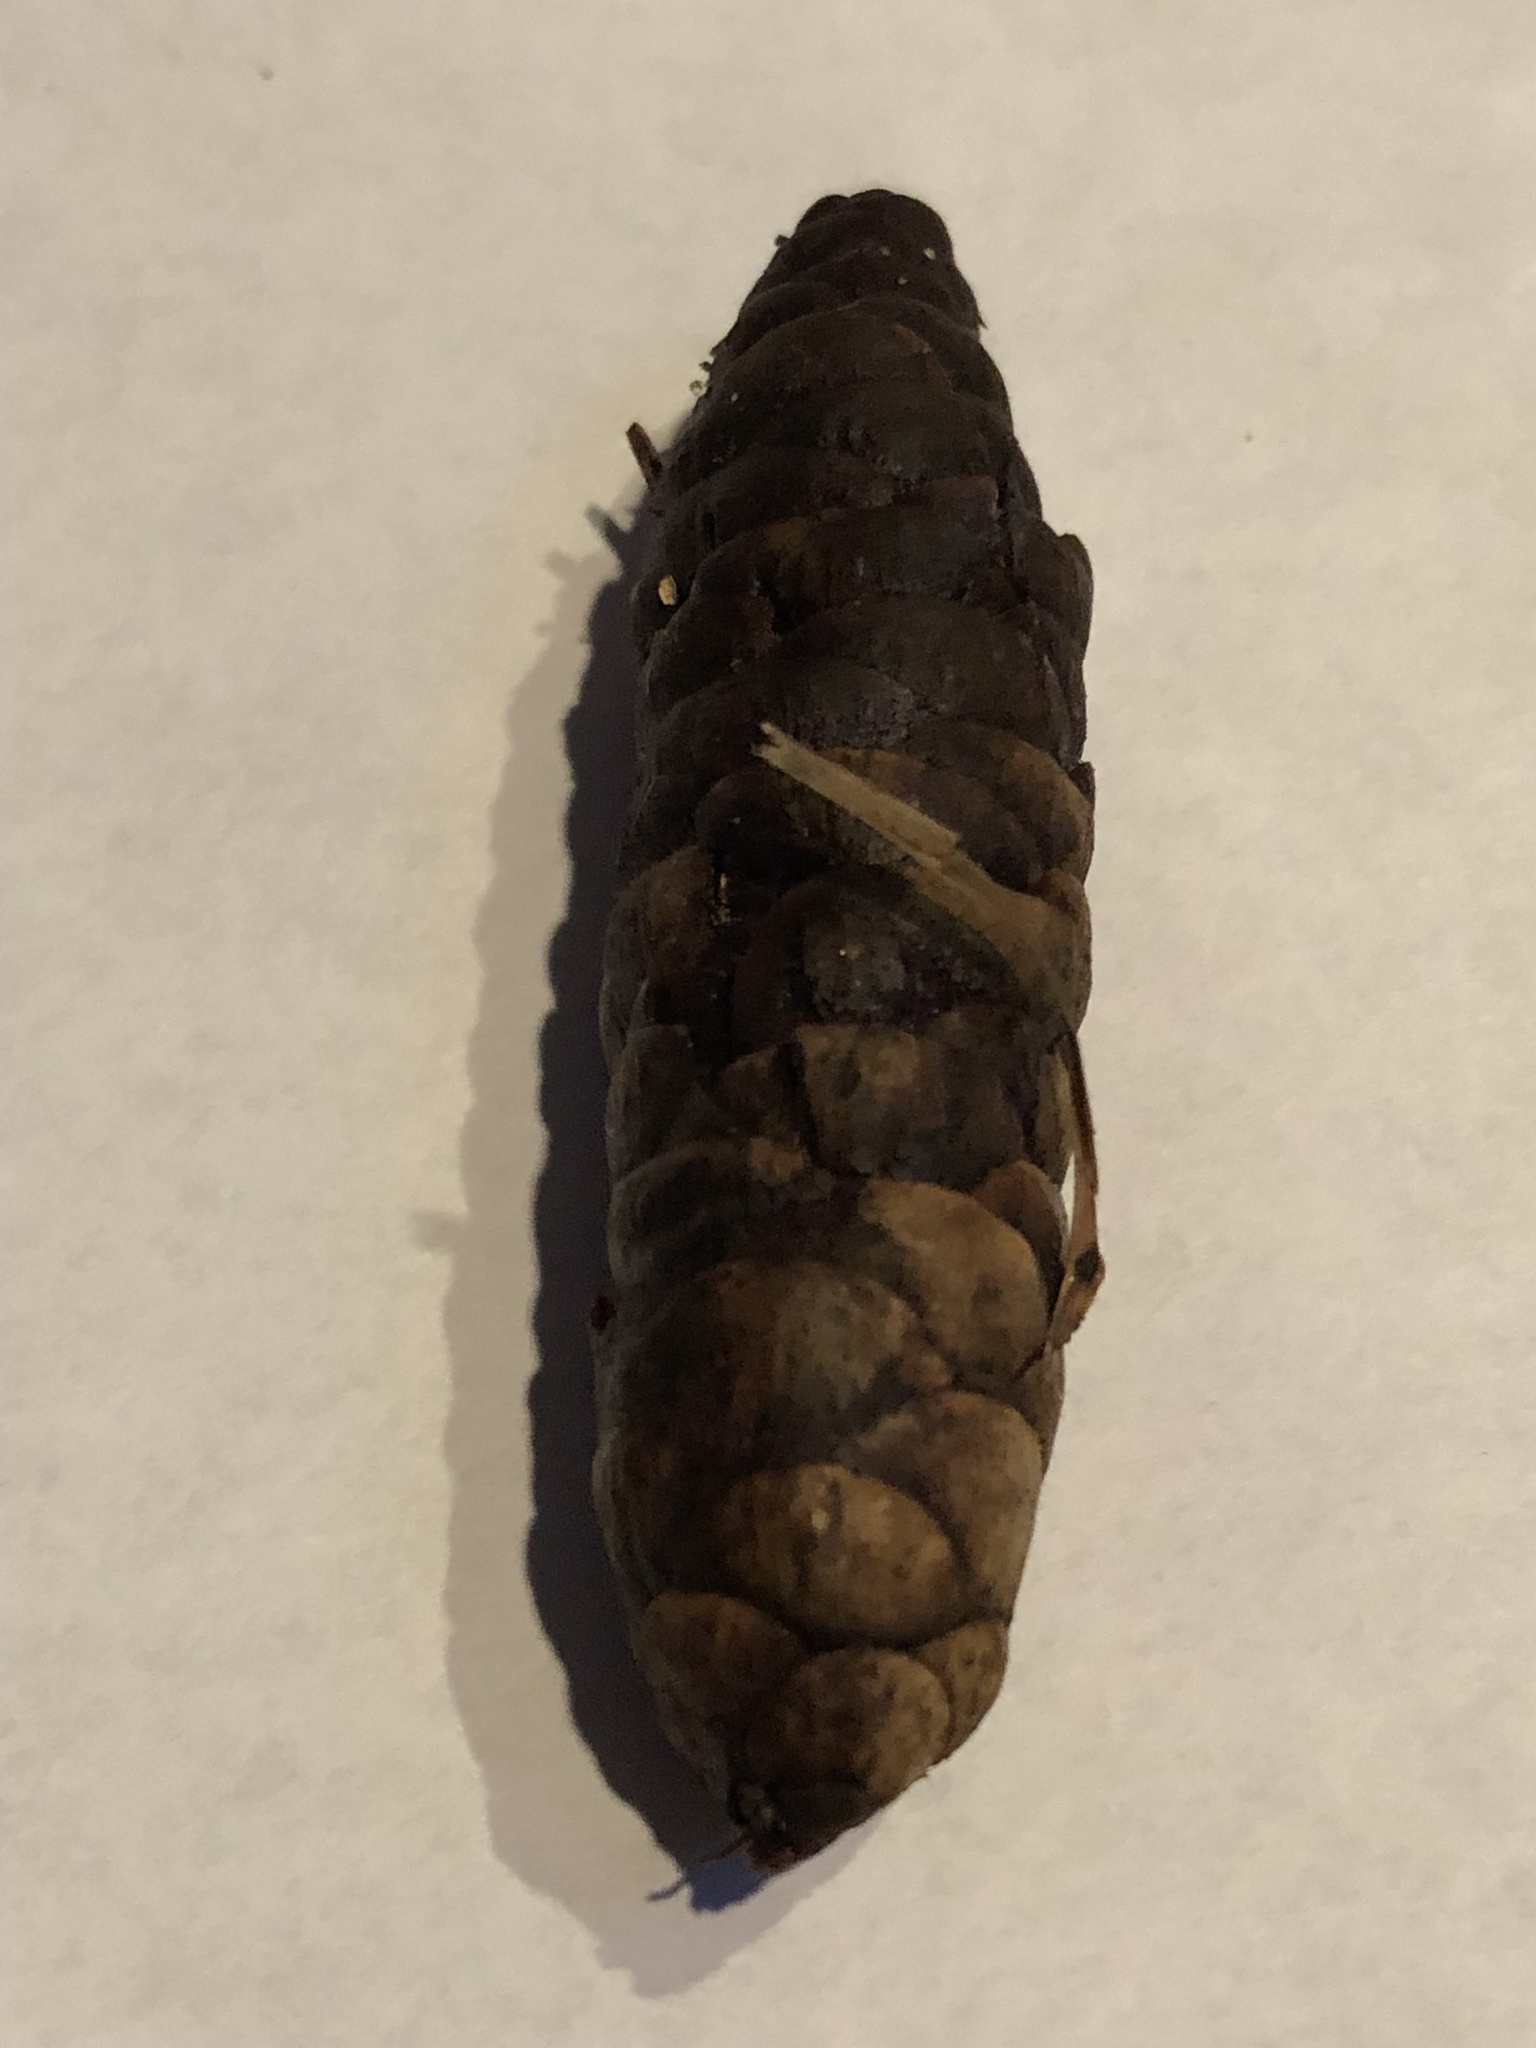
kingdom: Plantae
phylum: Tracheophyta
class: Pinopsida
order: Pinales
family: Pinaceae
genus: Picea
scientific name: Picea glauca
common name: White spruce
